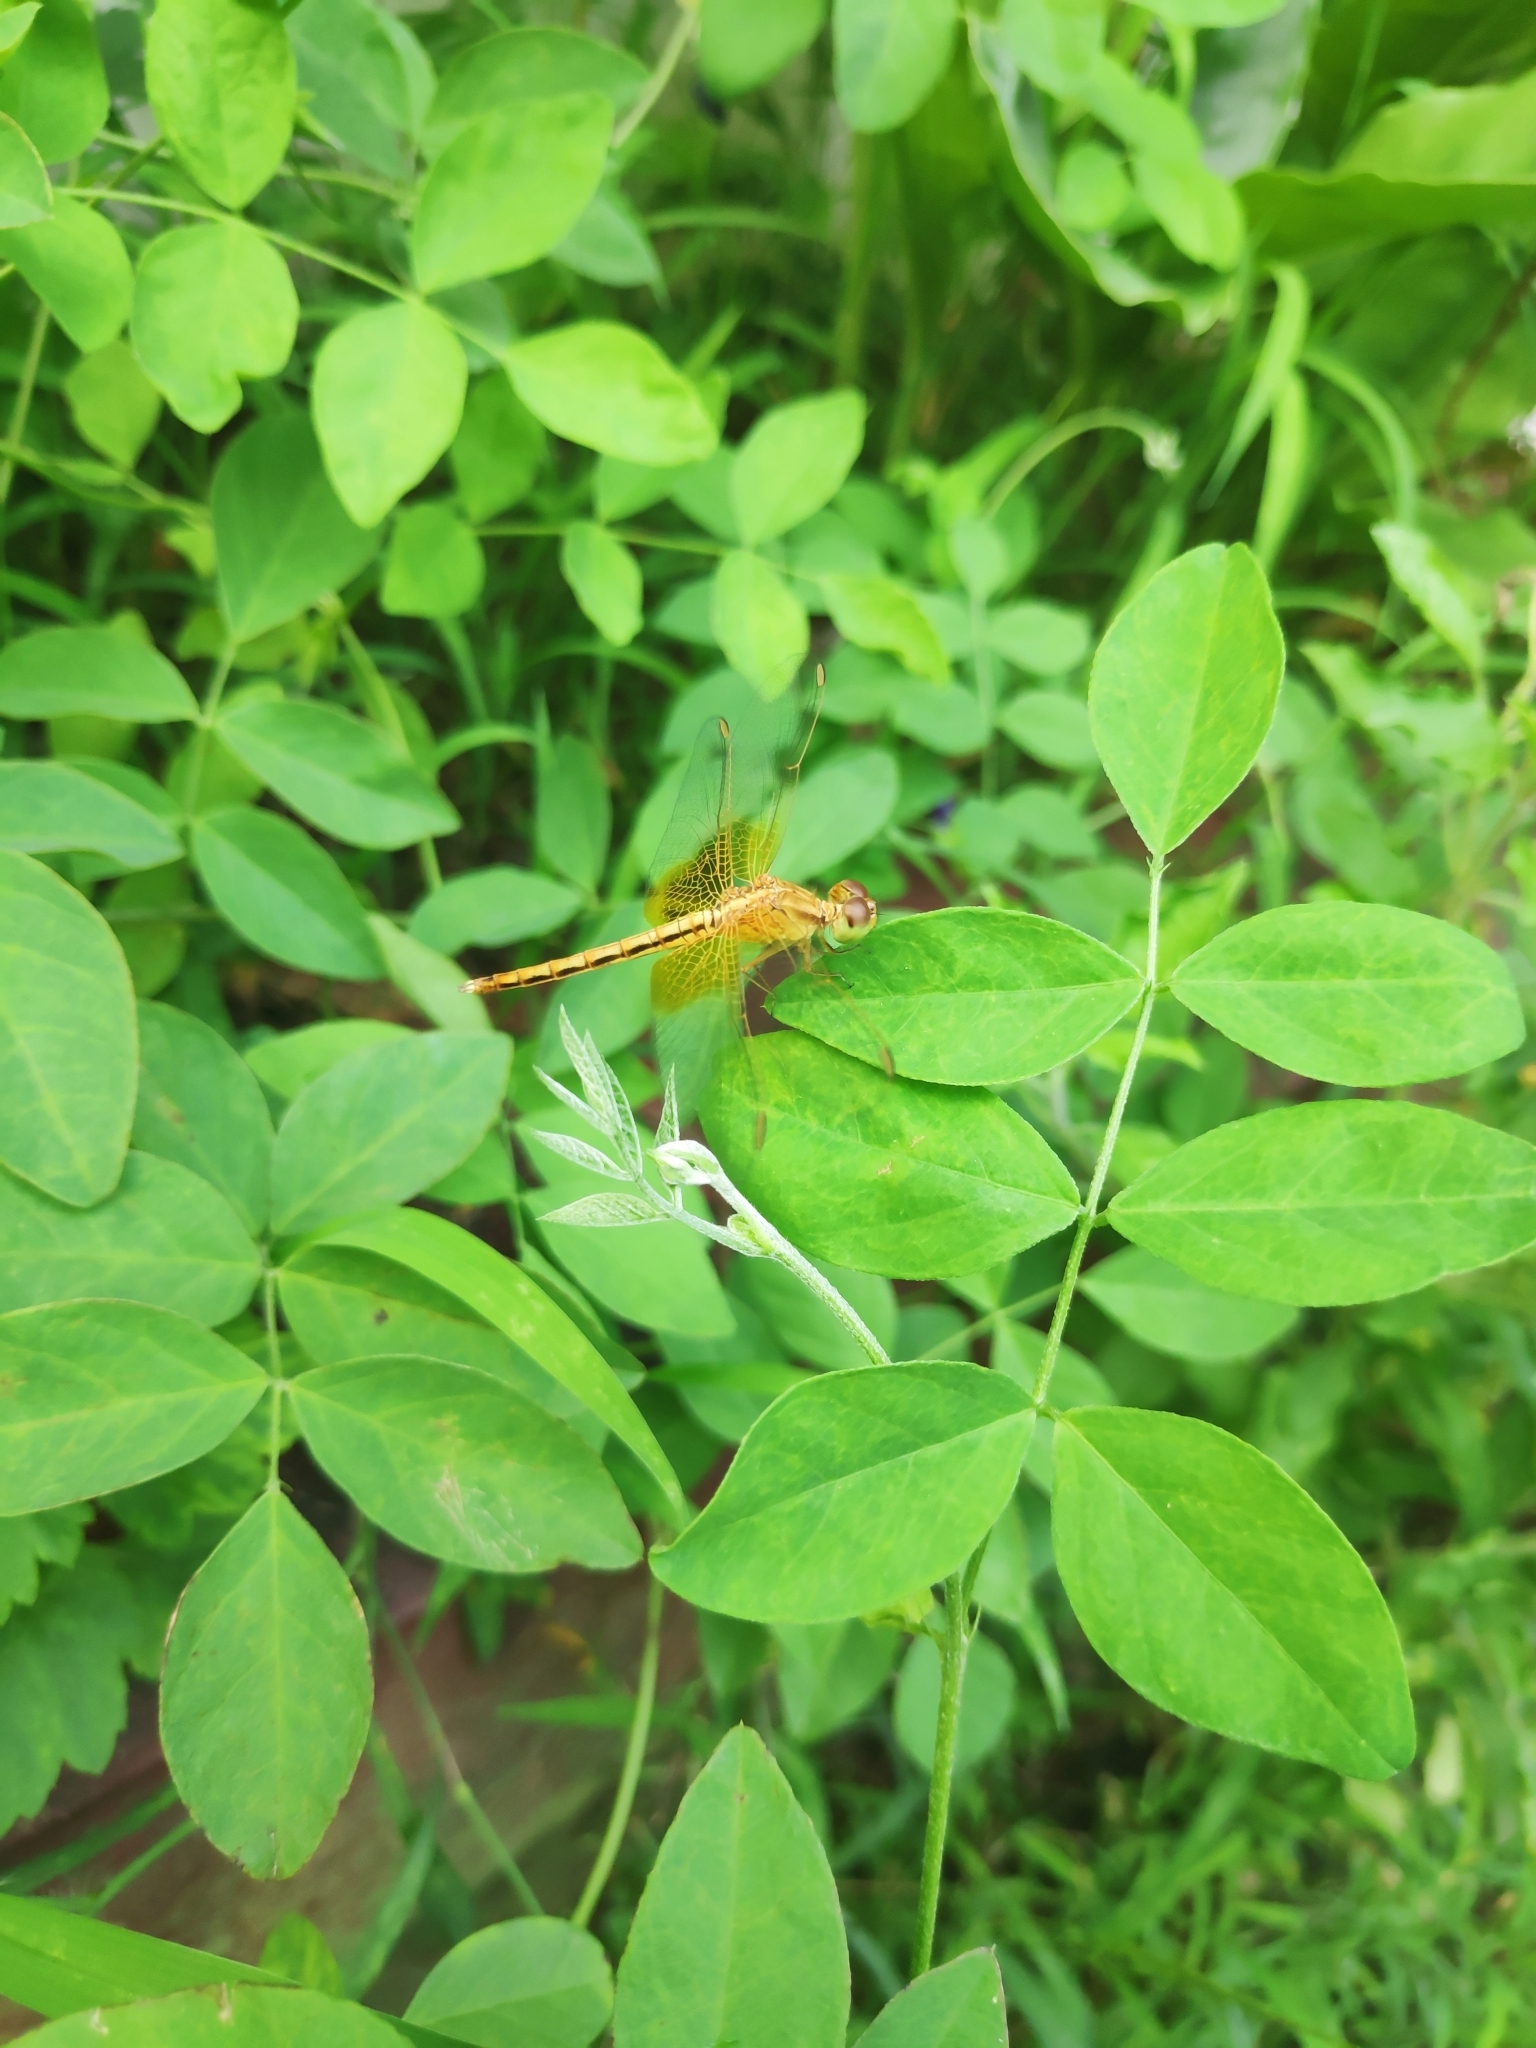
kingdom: Animalia
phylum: Arthropoda
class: Insecta
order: Odonata
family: Libellulidae
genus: Neurothemis
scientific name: Neurothemis intermedia
